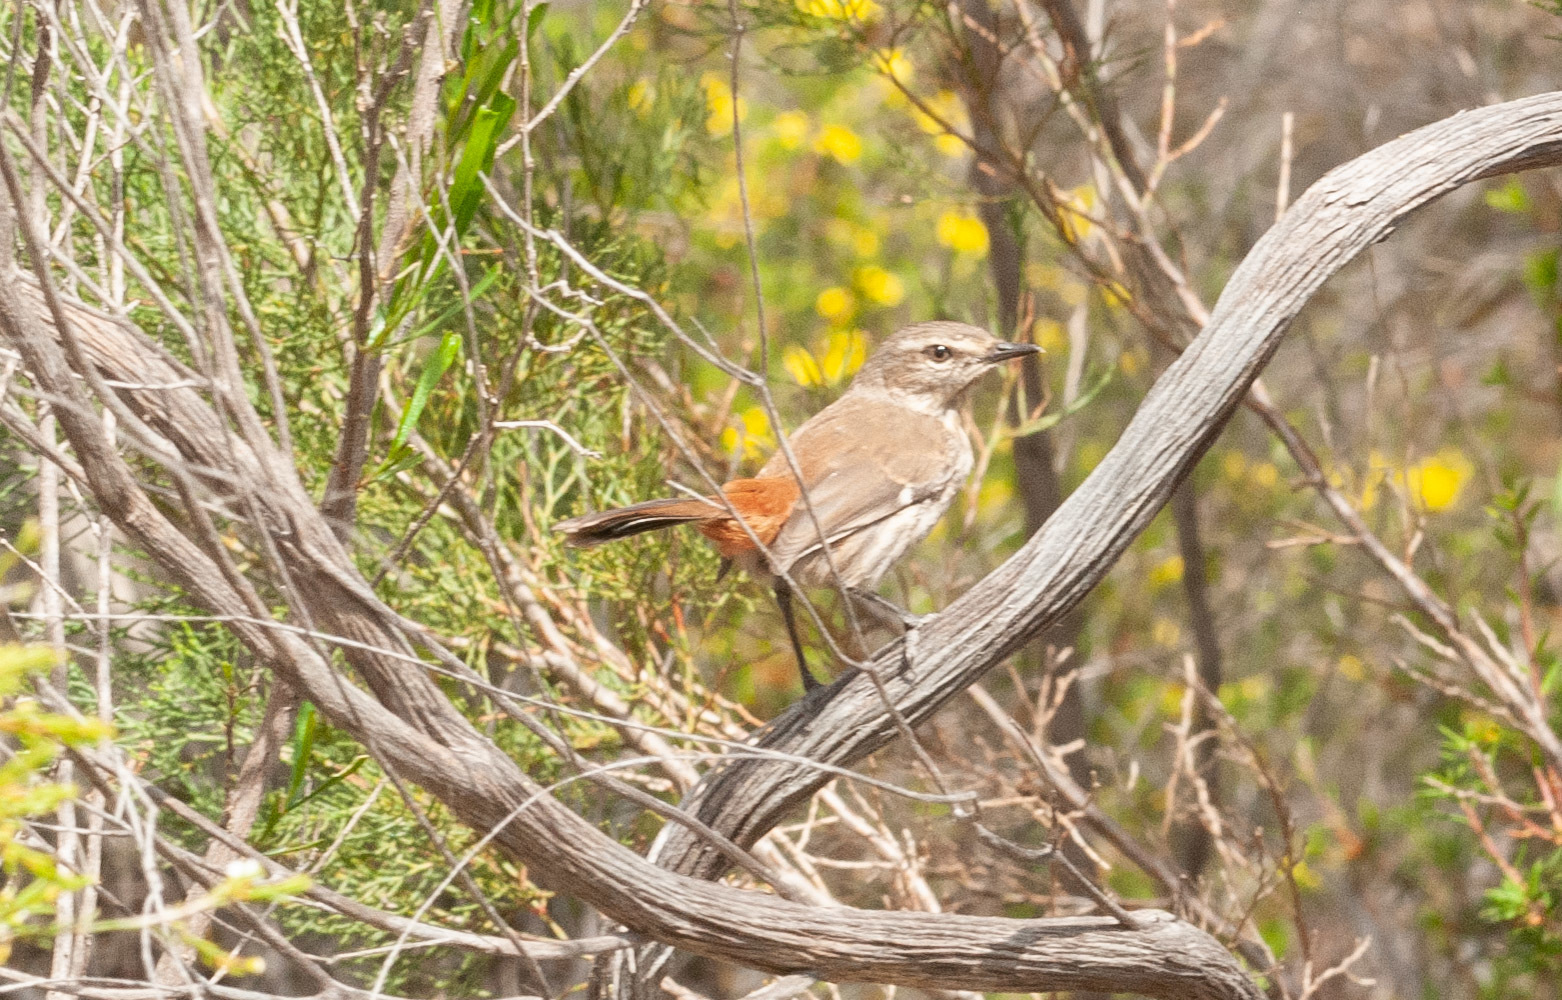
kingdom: Animalia
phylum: Chordata
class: Aves
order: Passeriformes
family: Acanthizidae
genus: Calamanthus
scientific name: Calamanthus cautus
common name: Shy heathwren
